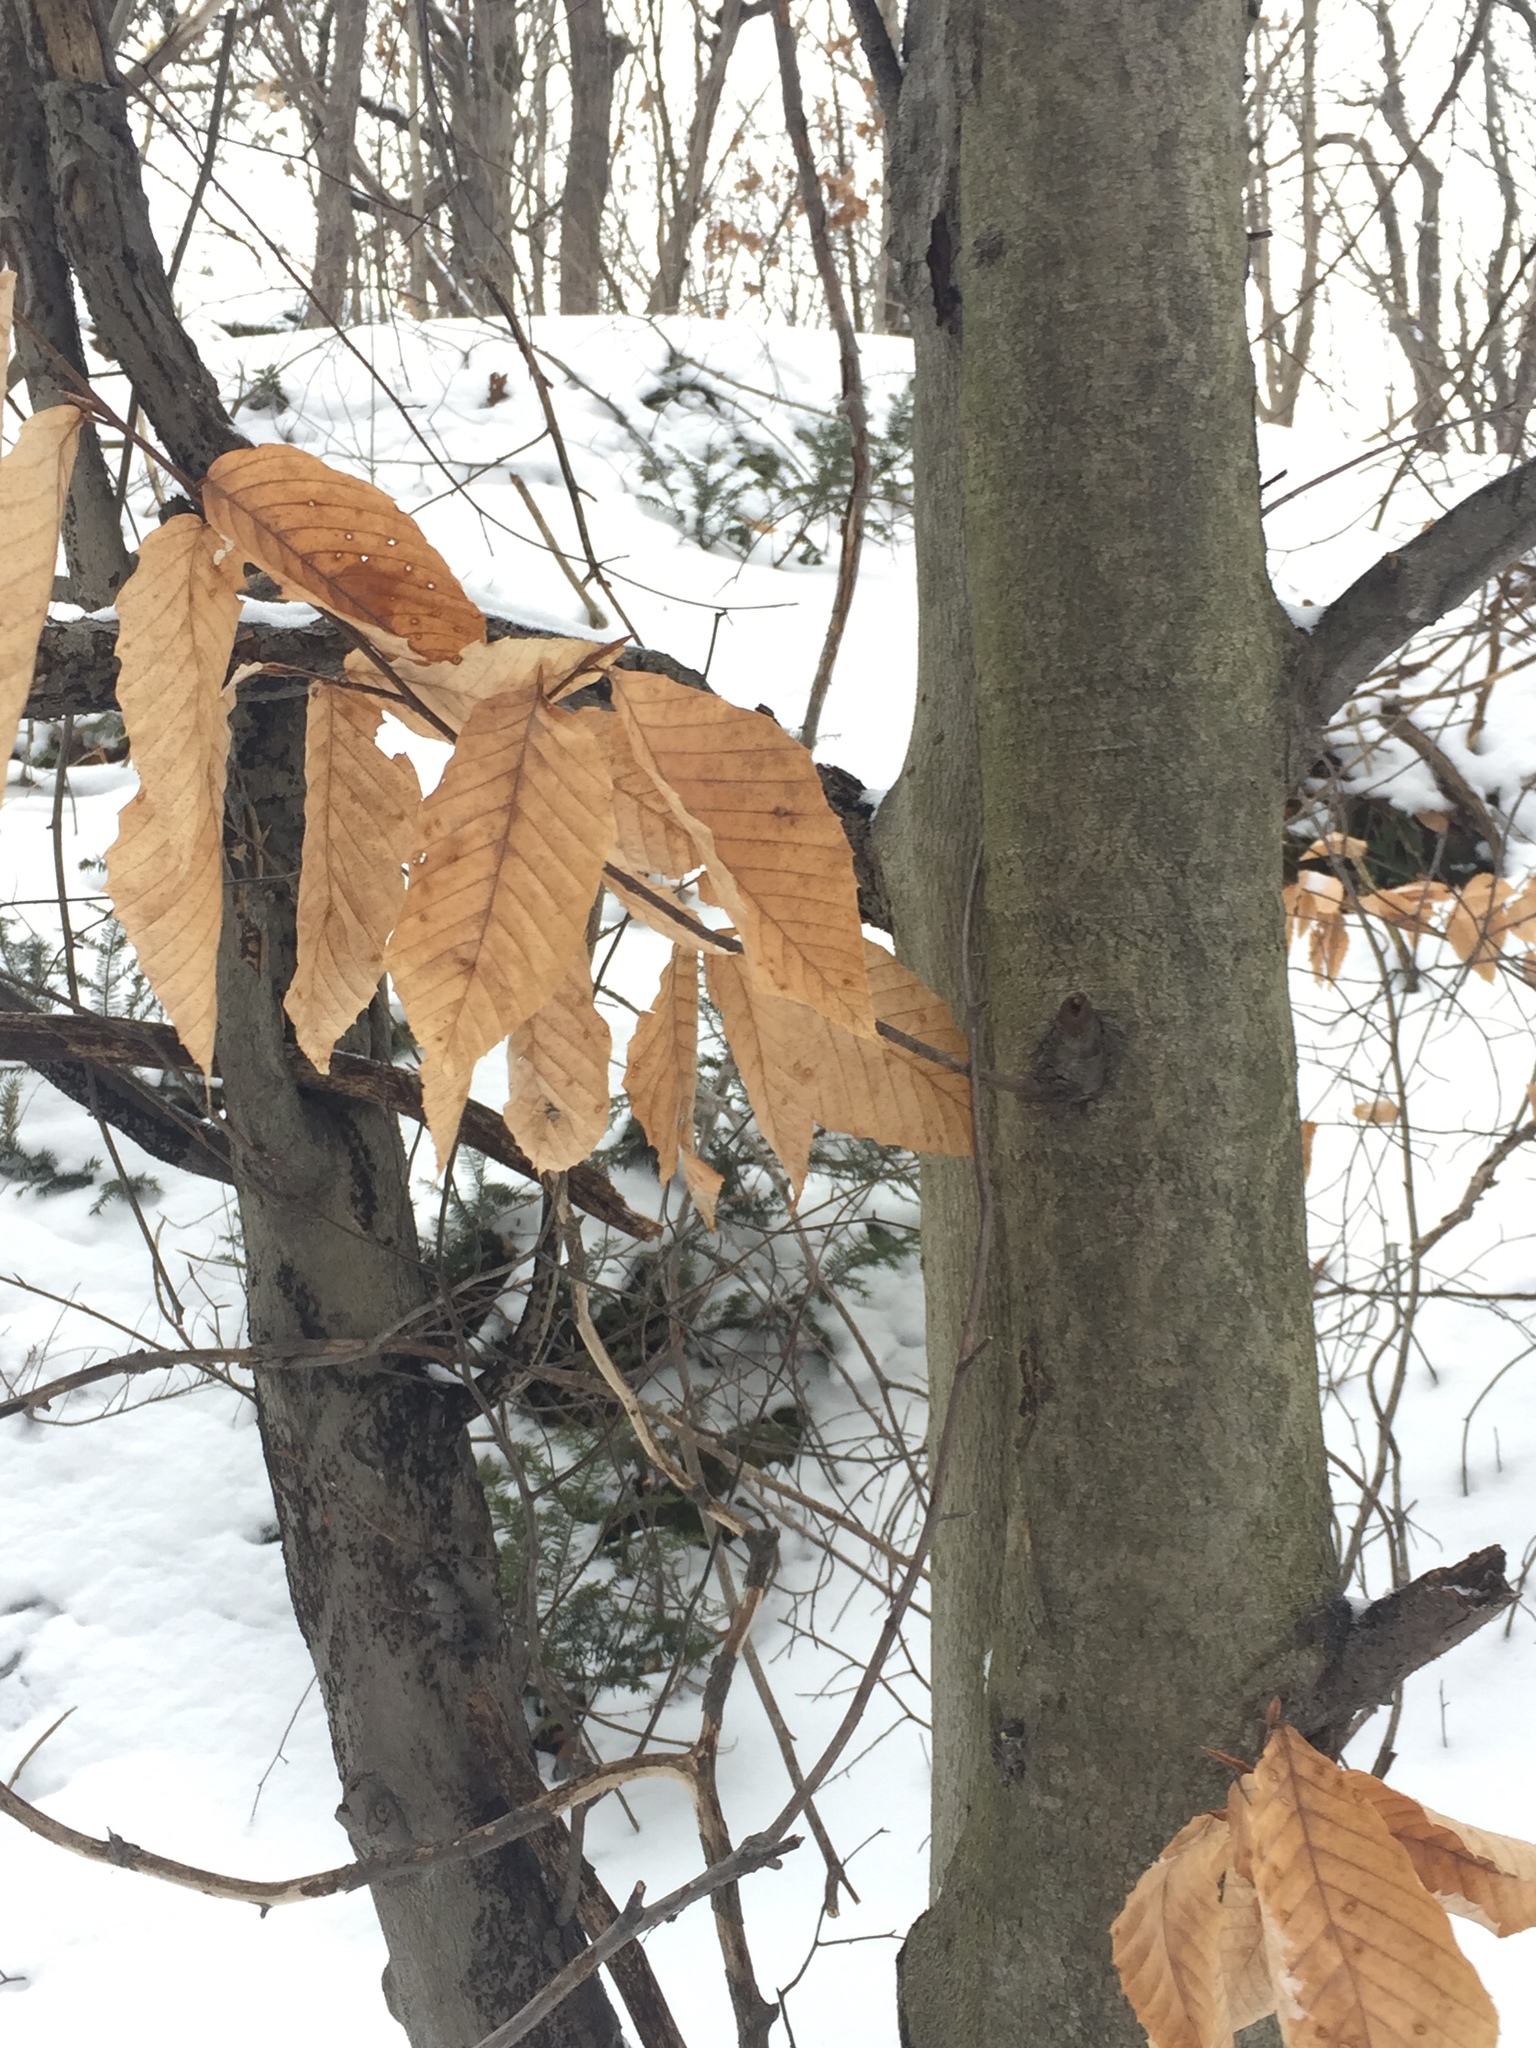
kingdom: Plantae
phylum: Tracheophyta
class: Magnoliopsida
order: Fagales
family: Fagaceae
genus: Fagus
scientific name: Fagus grandifolia
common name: American beech
